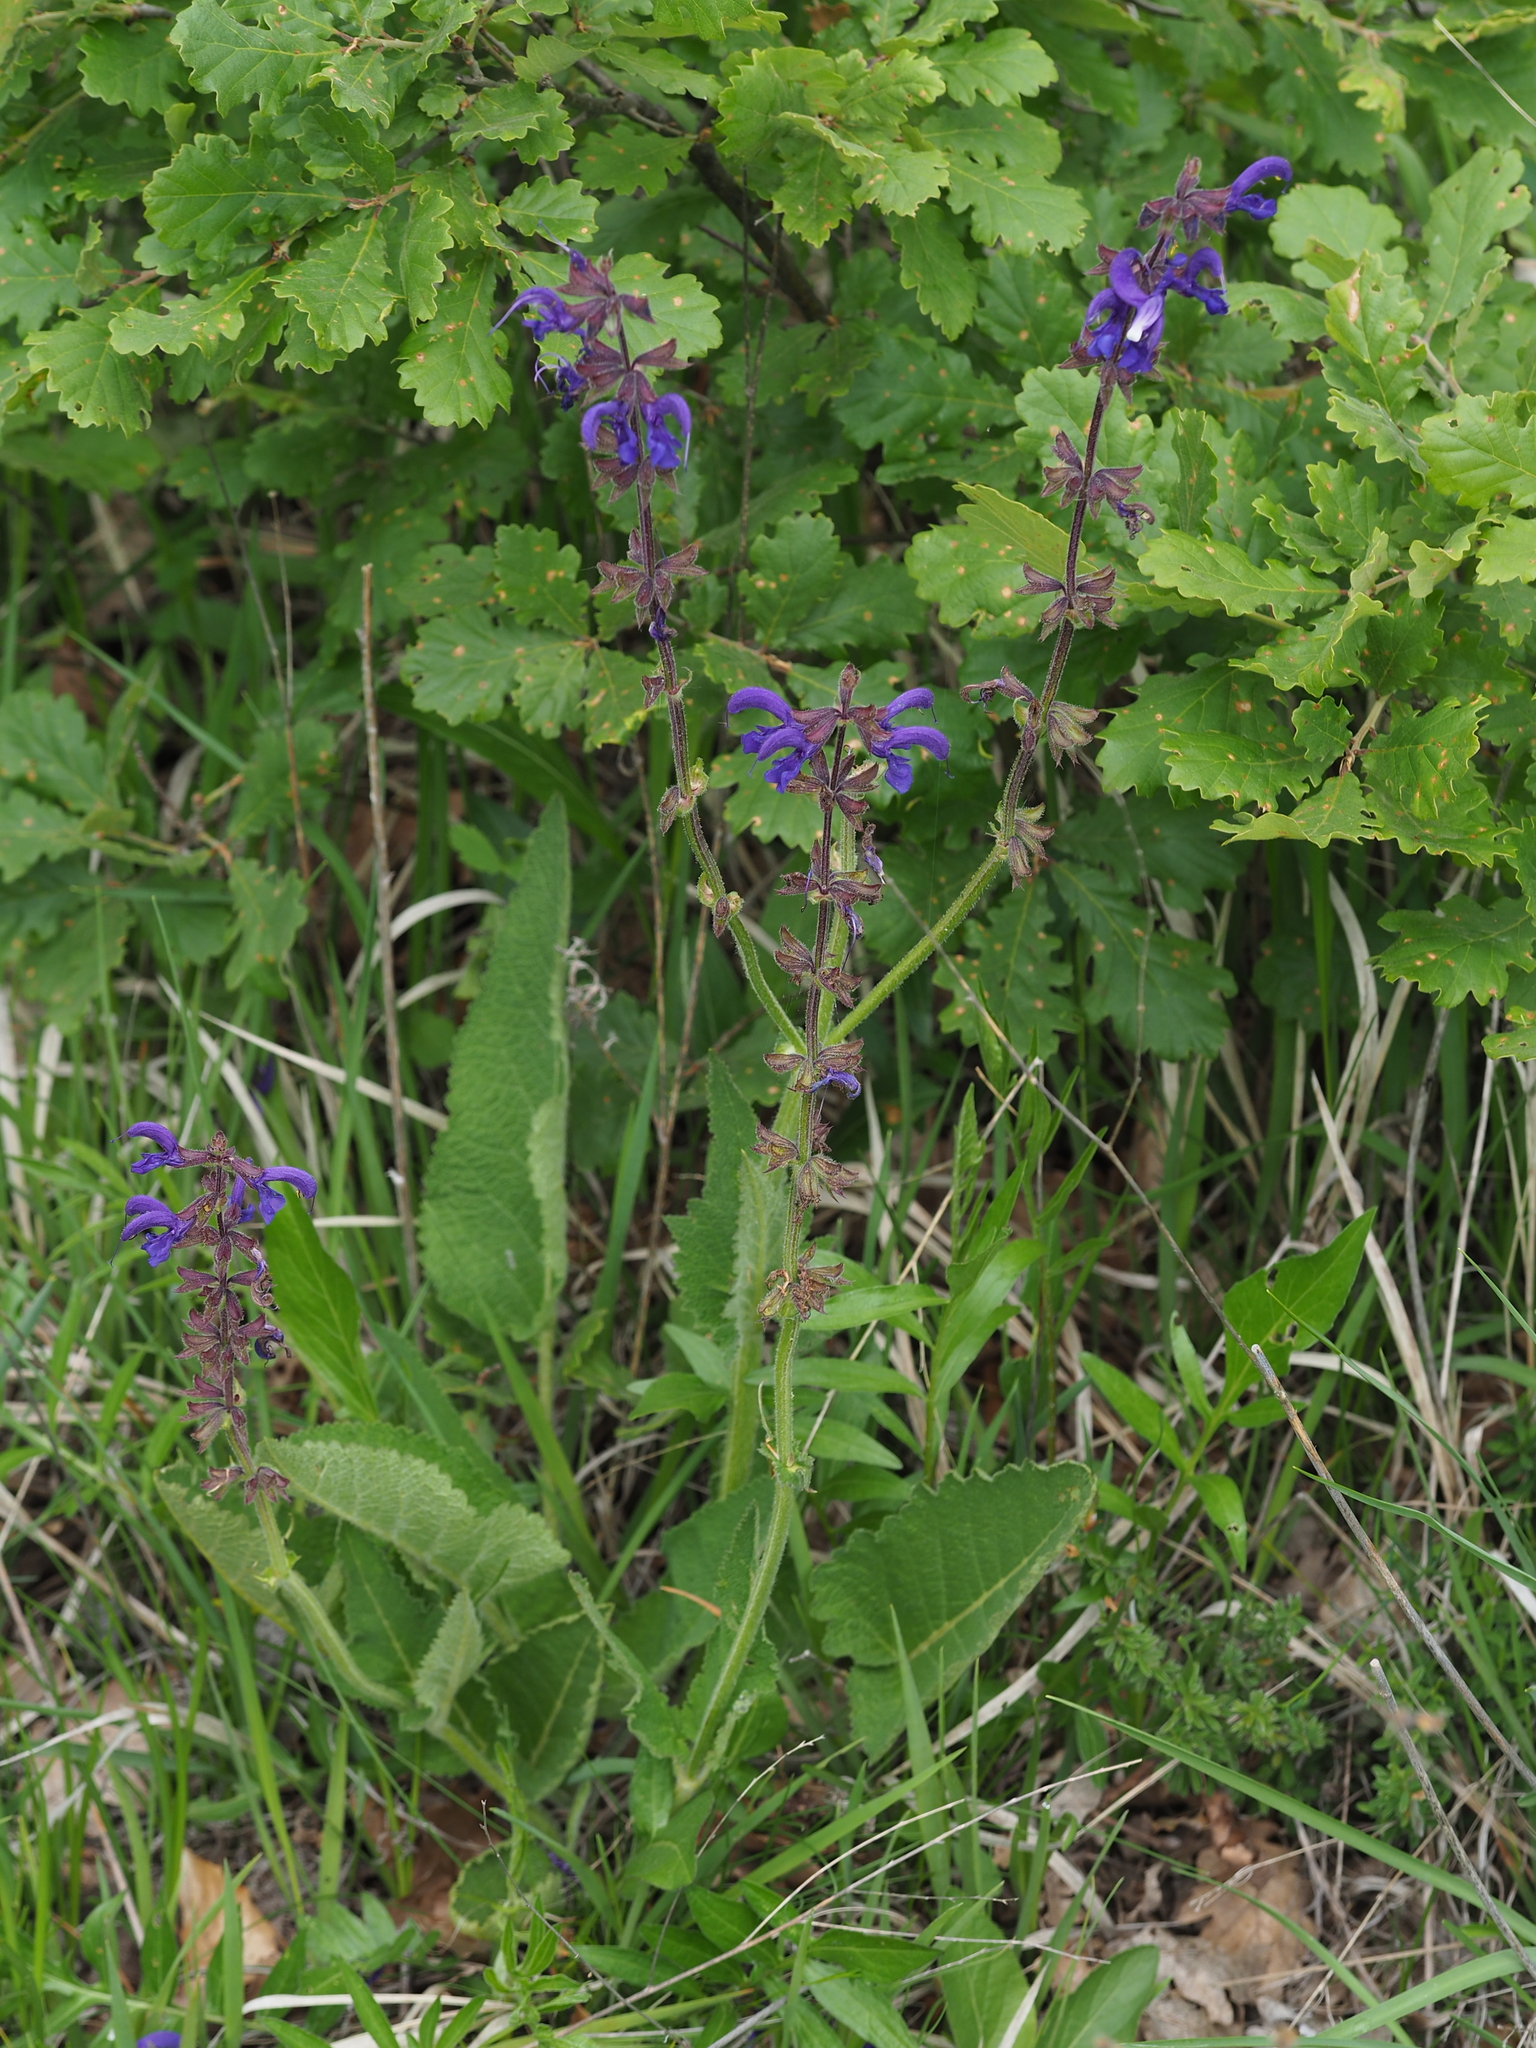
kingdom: Plantae
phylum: Tracheophyta
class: Magnoliopsida
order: Lamiales
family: Lamiaceae
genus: Salvia
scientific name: Salvia pratensis
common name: Meadow sage
